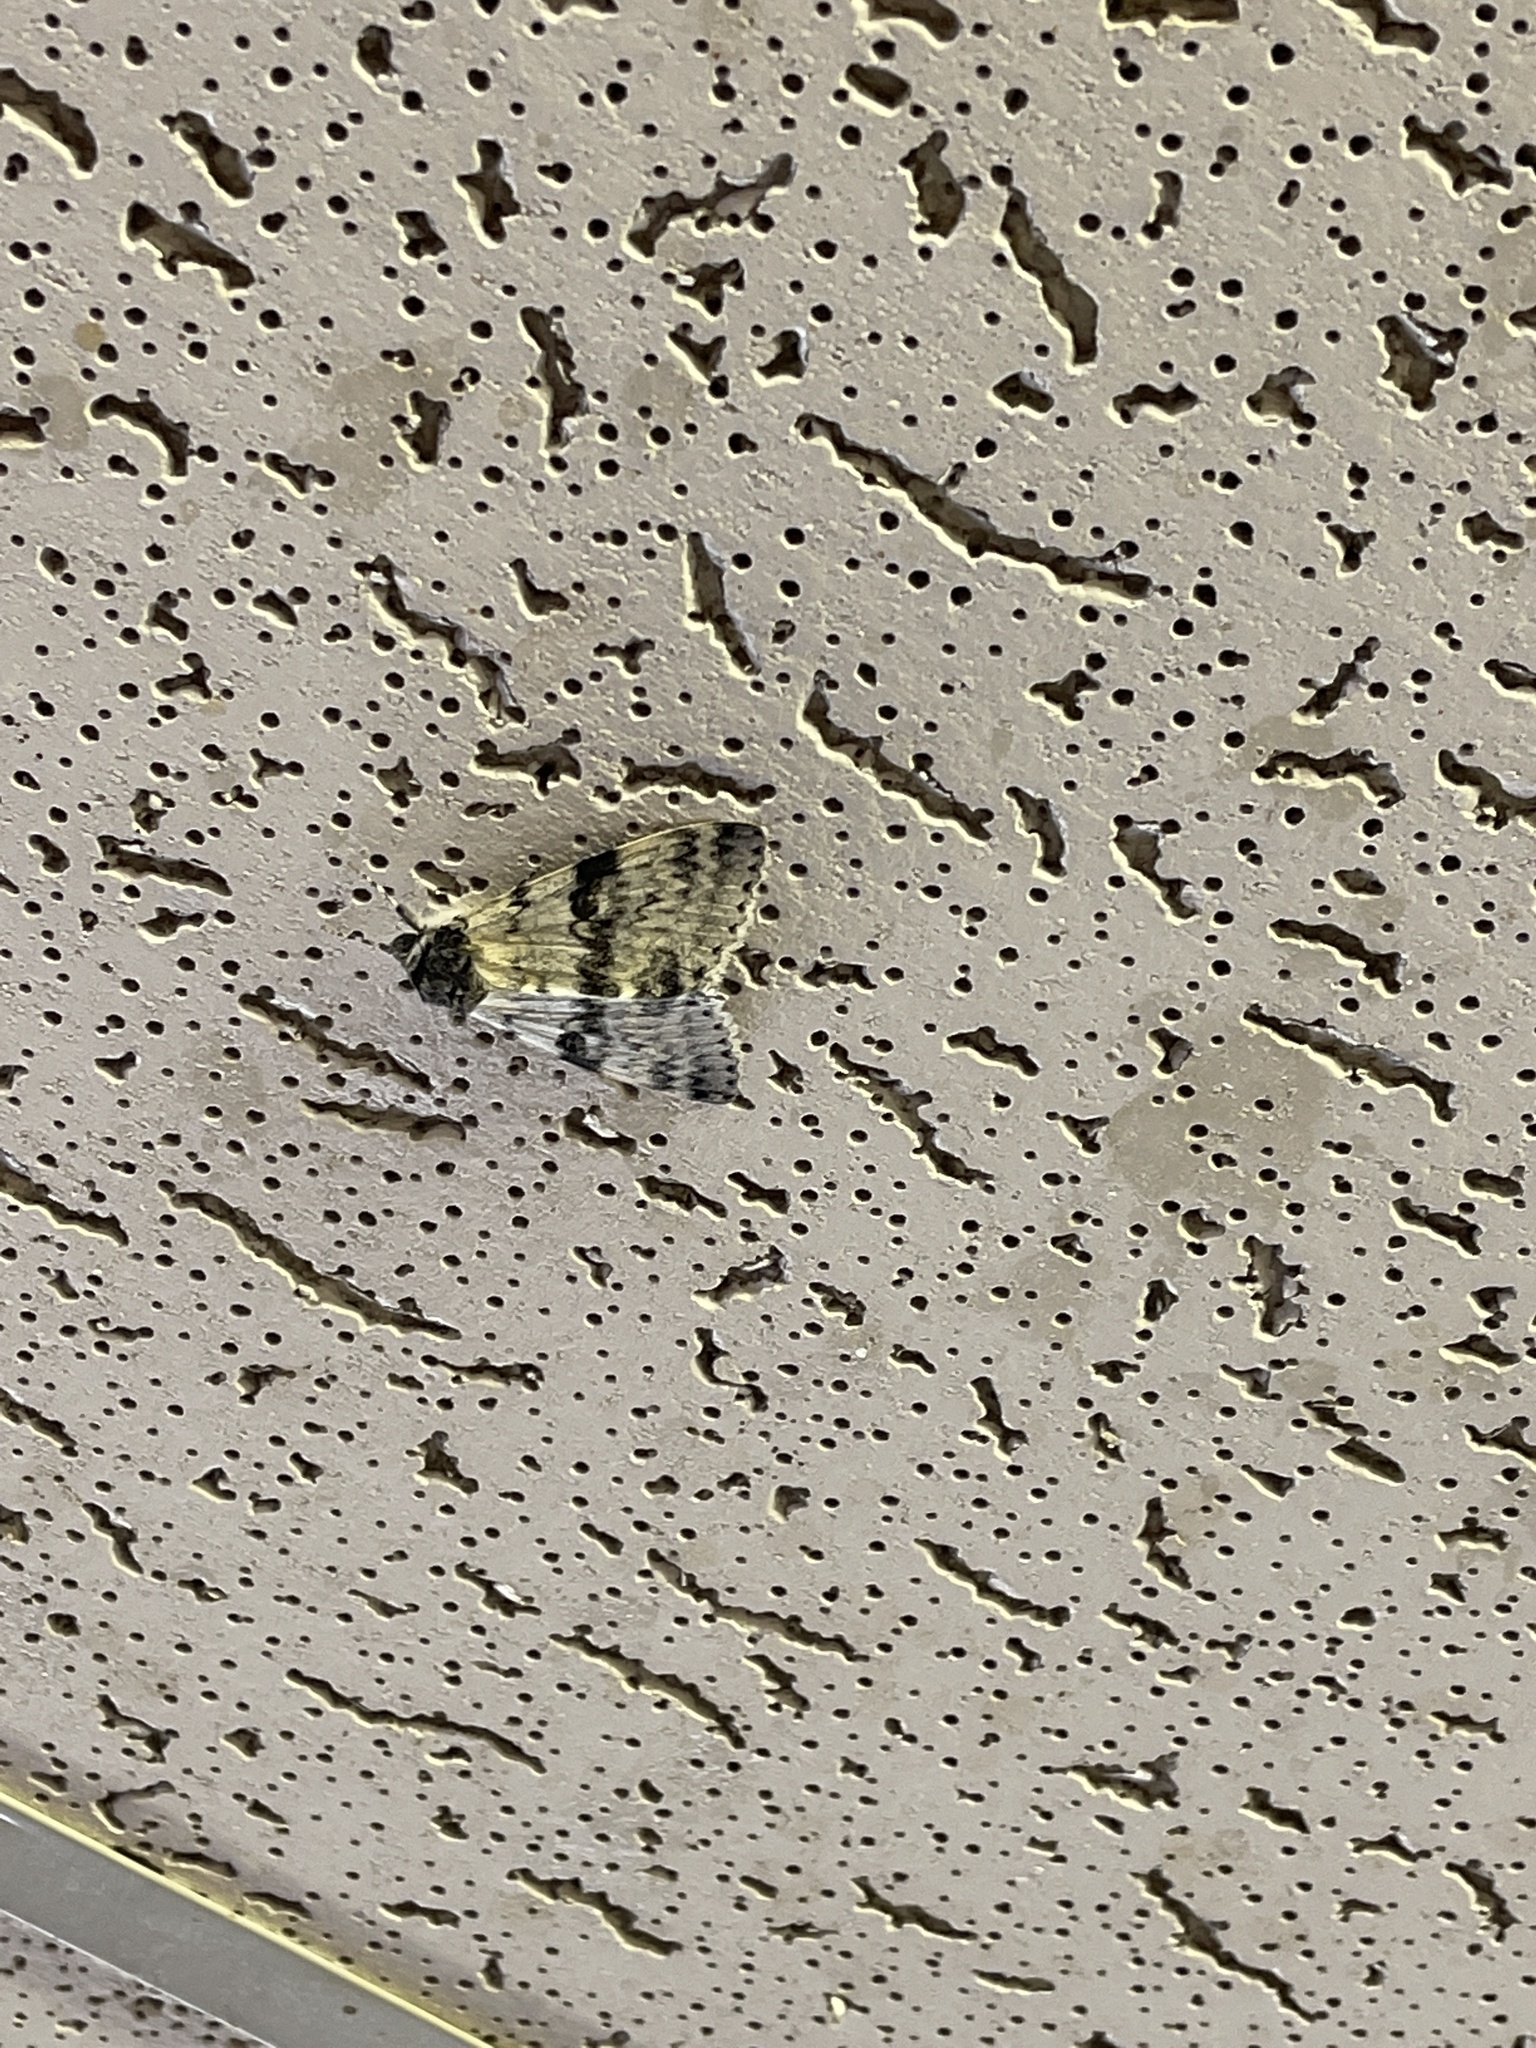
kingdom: Animalia
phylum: Arthropoda
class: Insecta
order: Lepidoptera
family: Erebidae
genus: Catocala
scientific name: Catocala relicta
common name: White underwing
